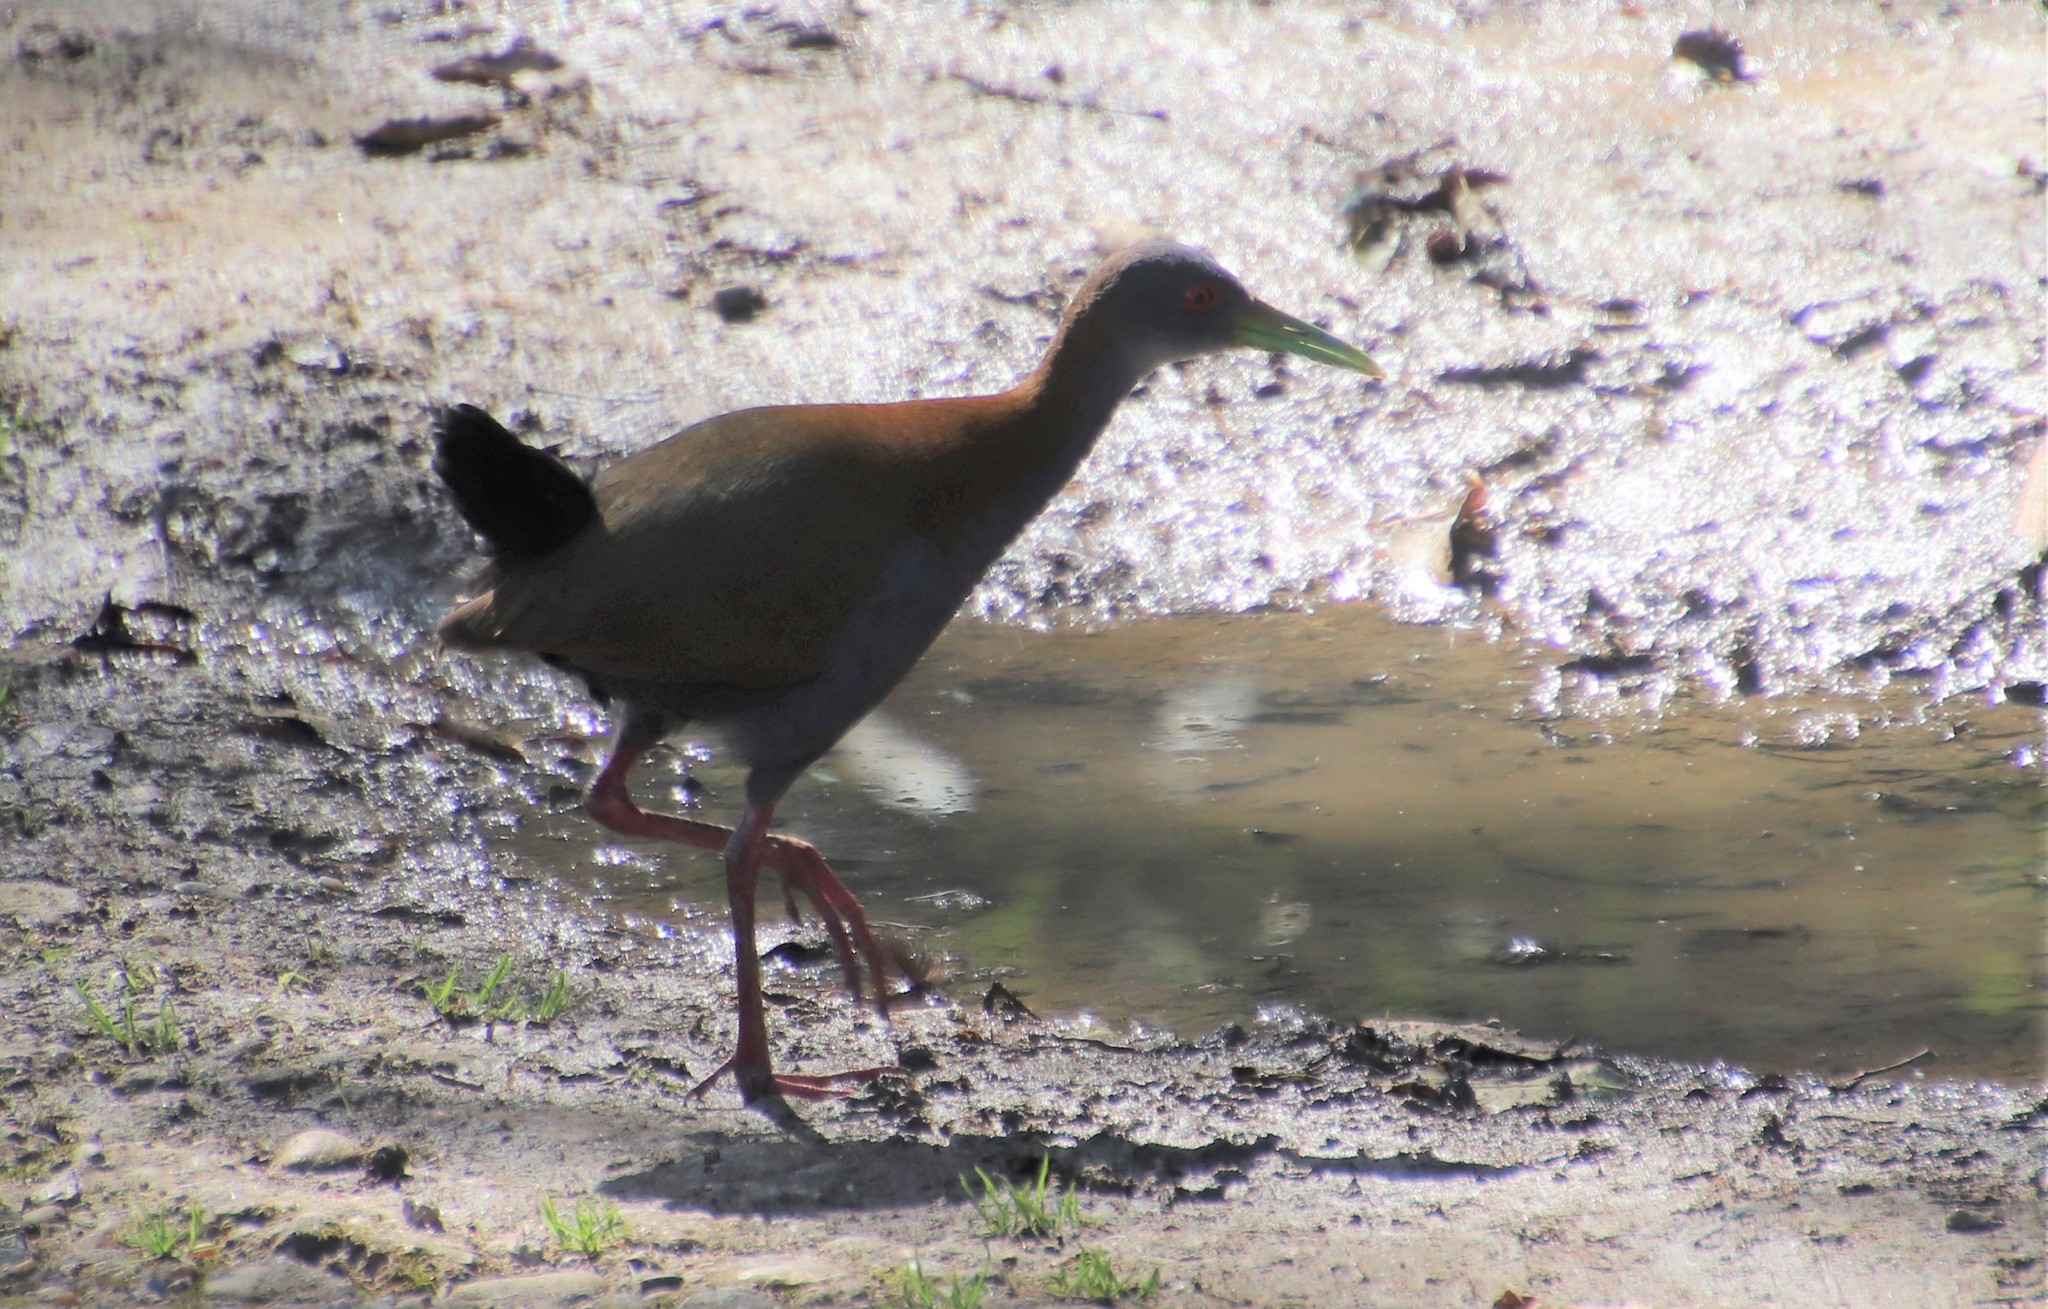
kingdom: Animalia
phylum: Chordata
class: Aves
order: Gruiformes
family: Rallidae
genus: Aramides
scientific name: Aramides saracura
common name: Slaty-breasted wood rail
